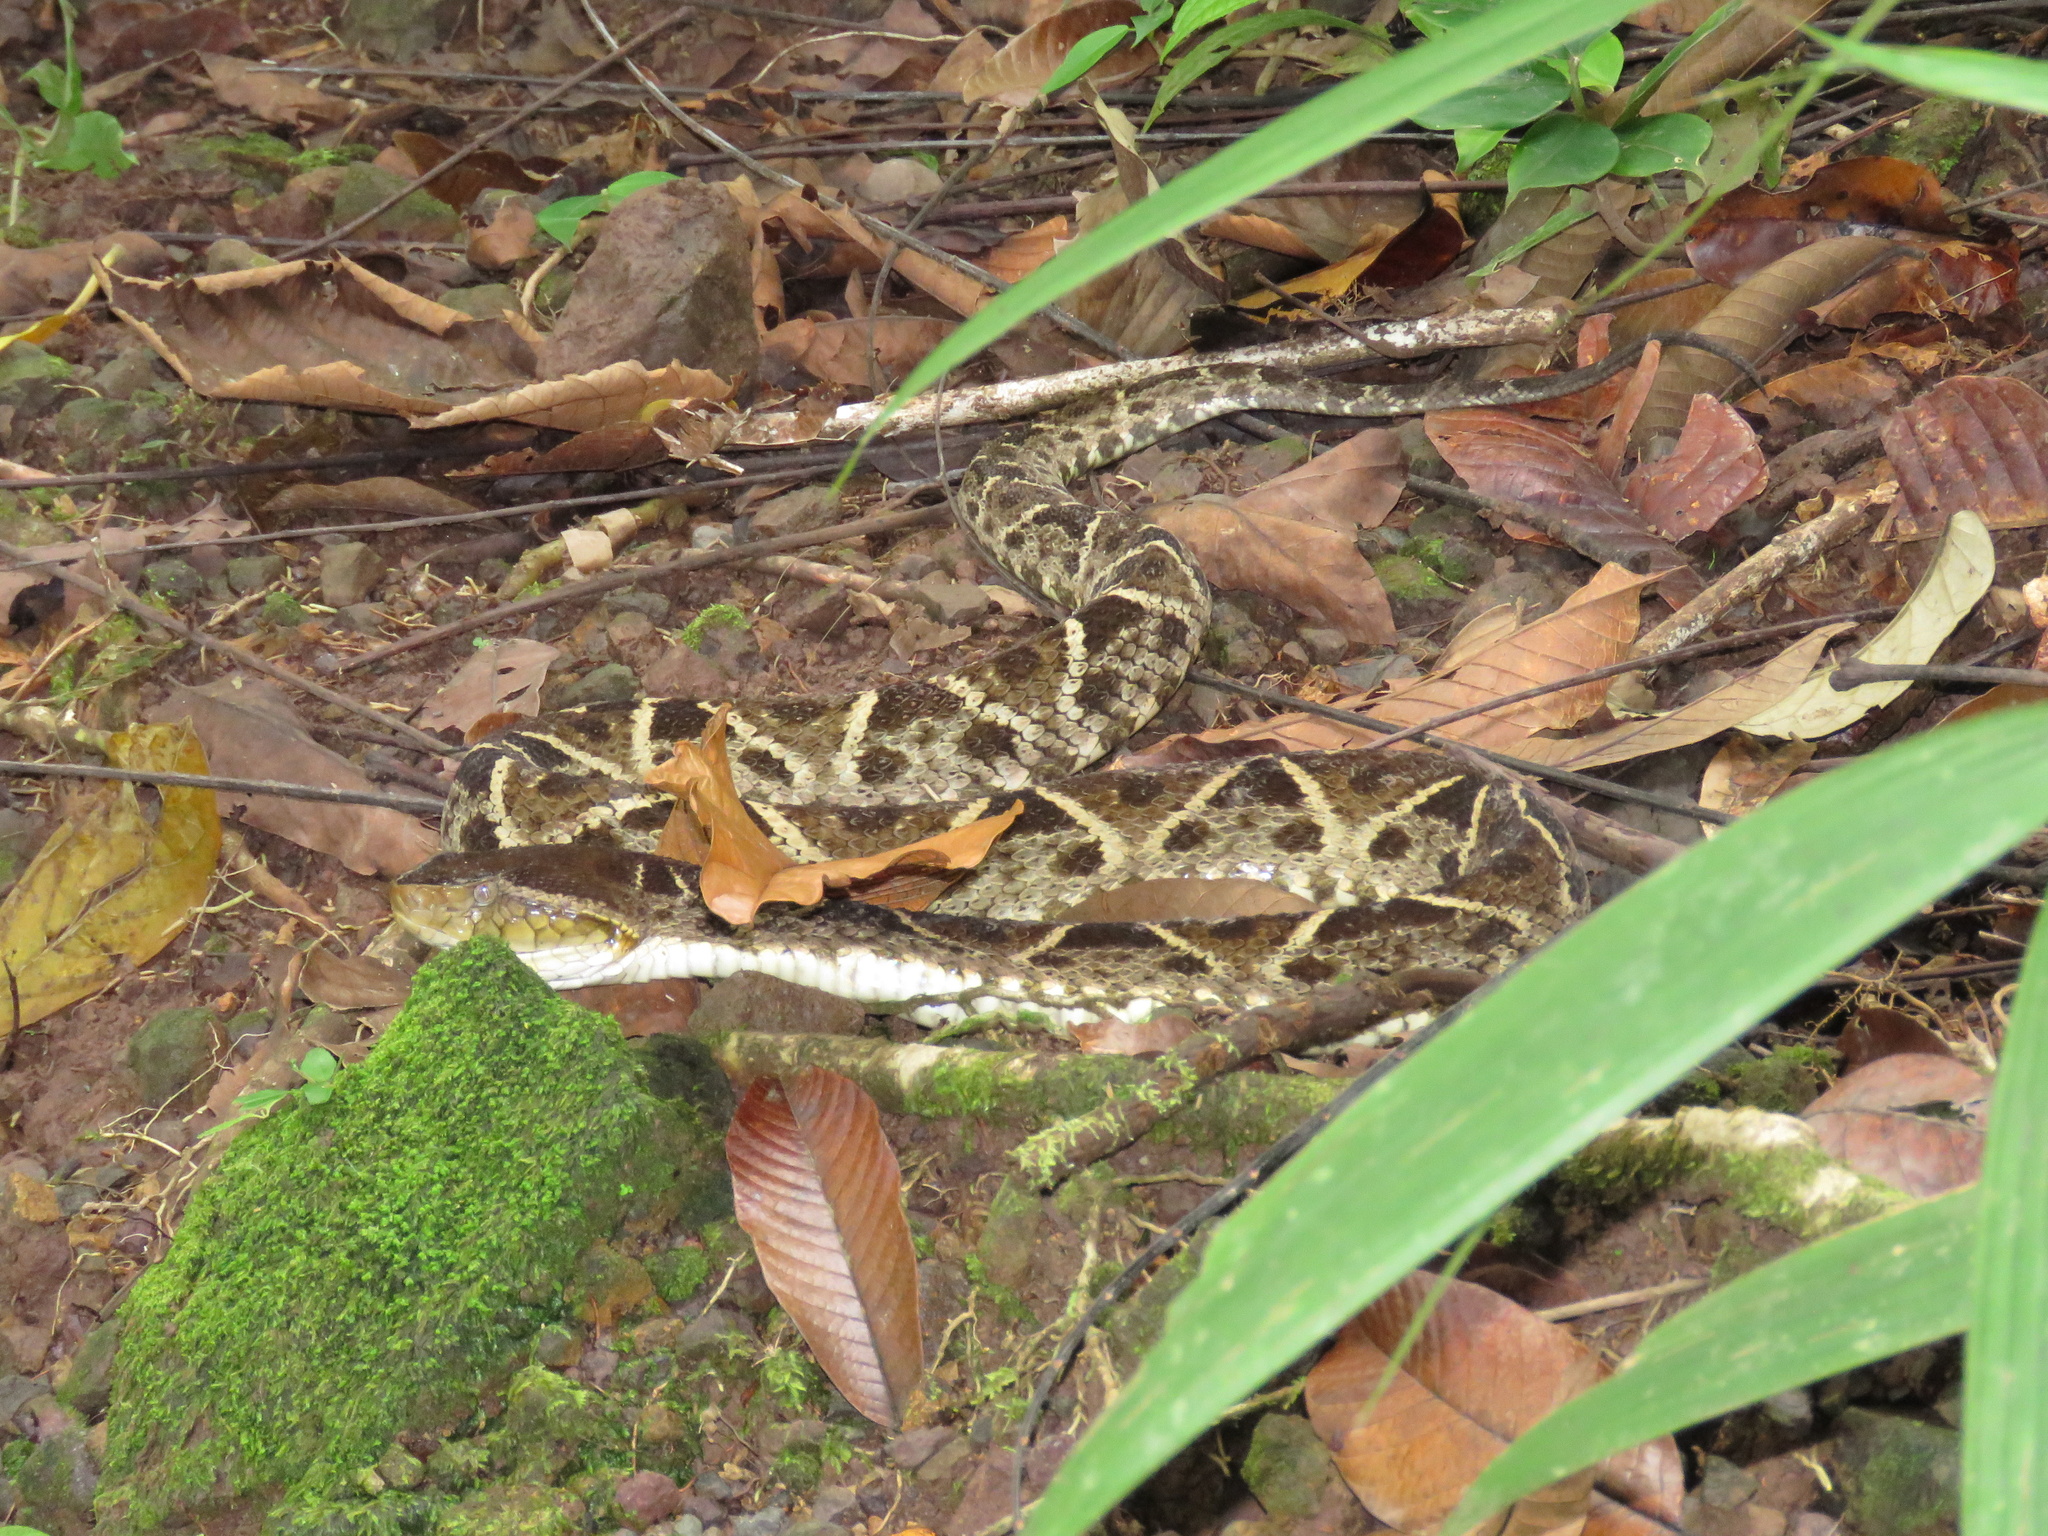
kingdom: Animalia
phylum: Chordata
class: Squamata
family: Viperidae
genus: Bothrops
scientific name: Bothrops asper
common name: Terciopelo
